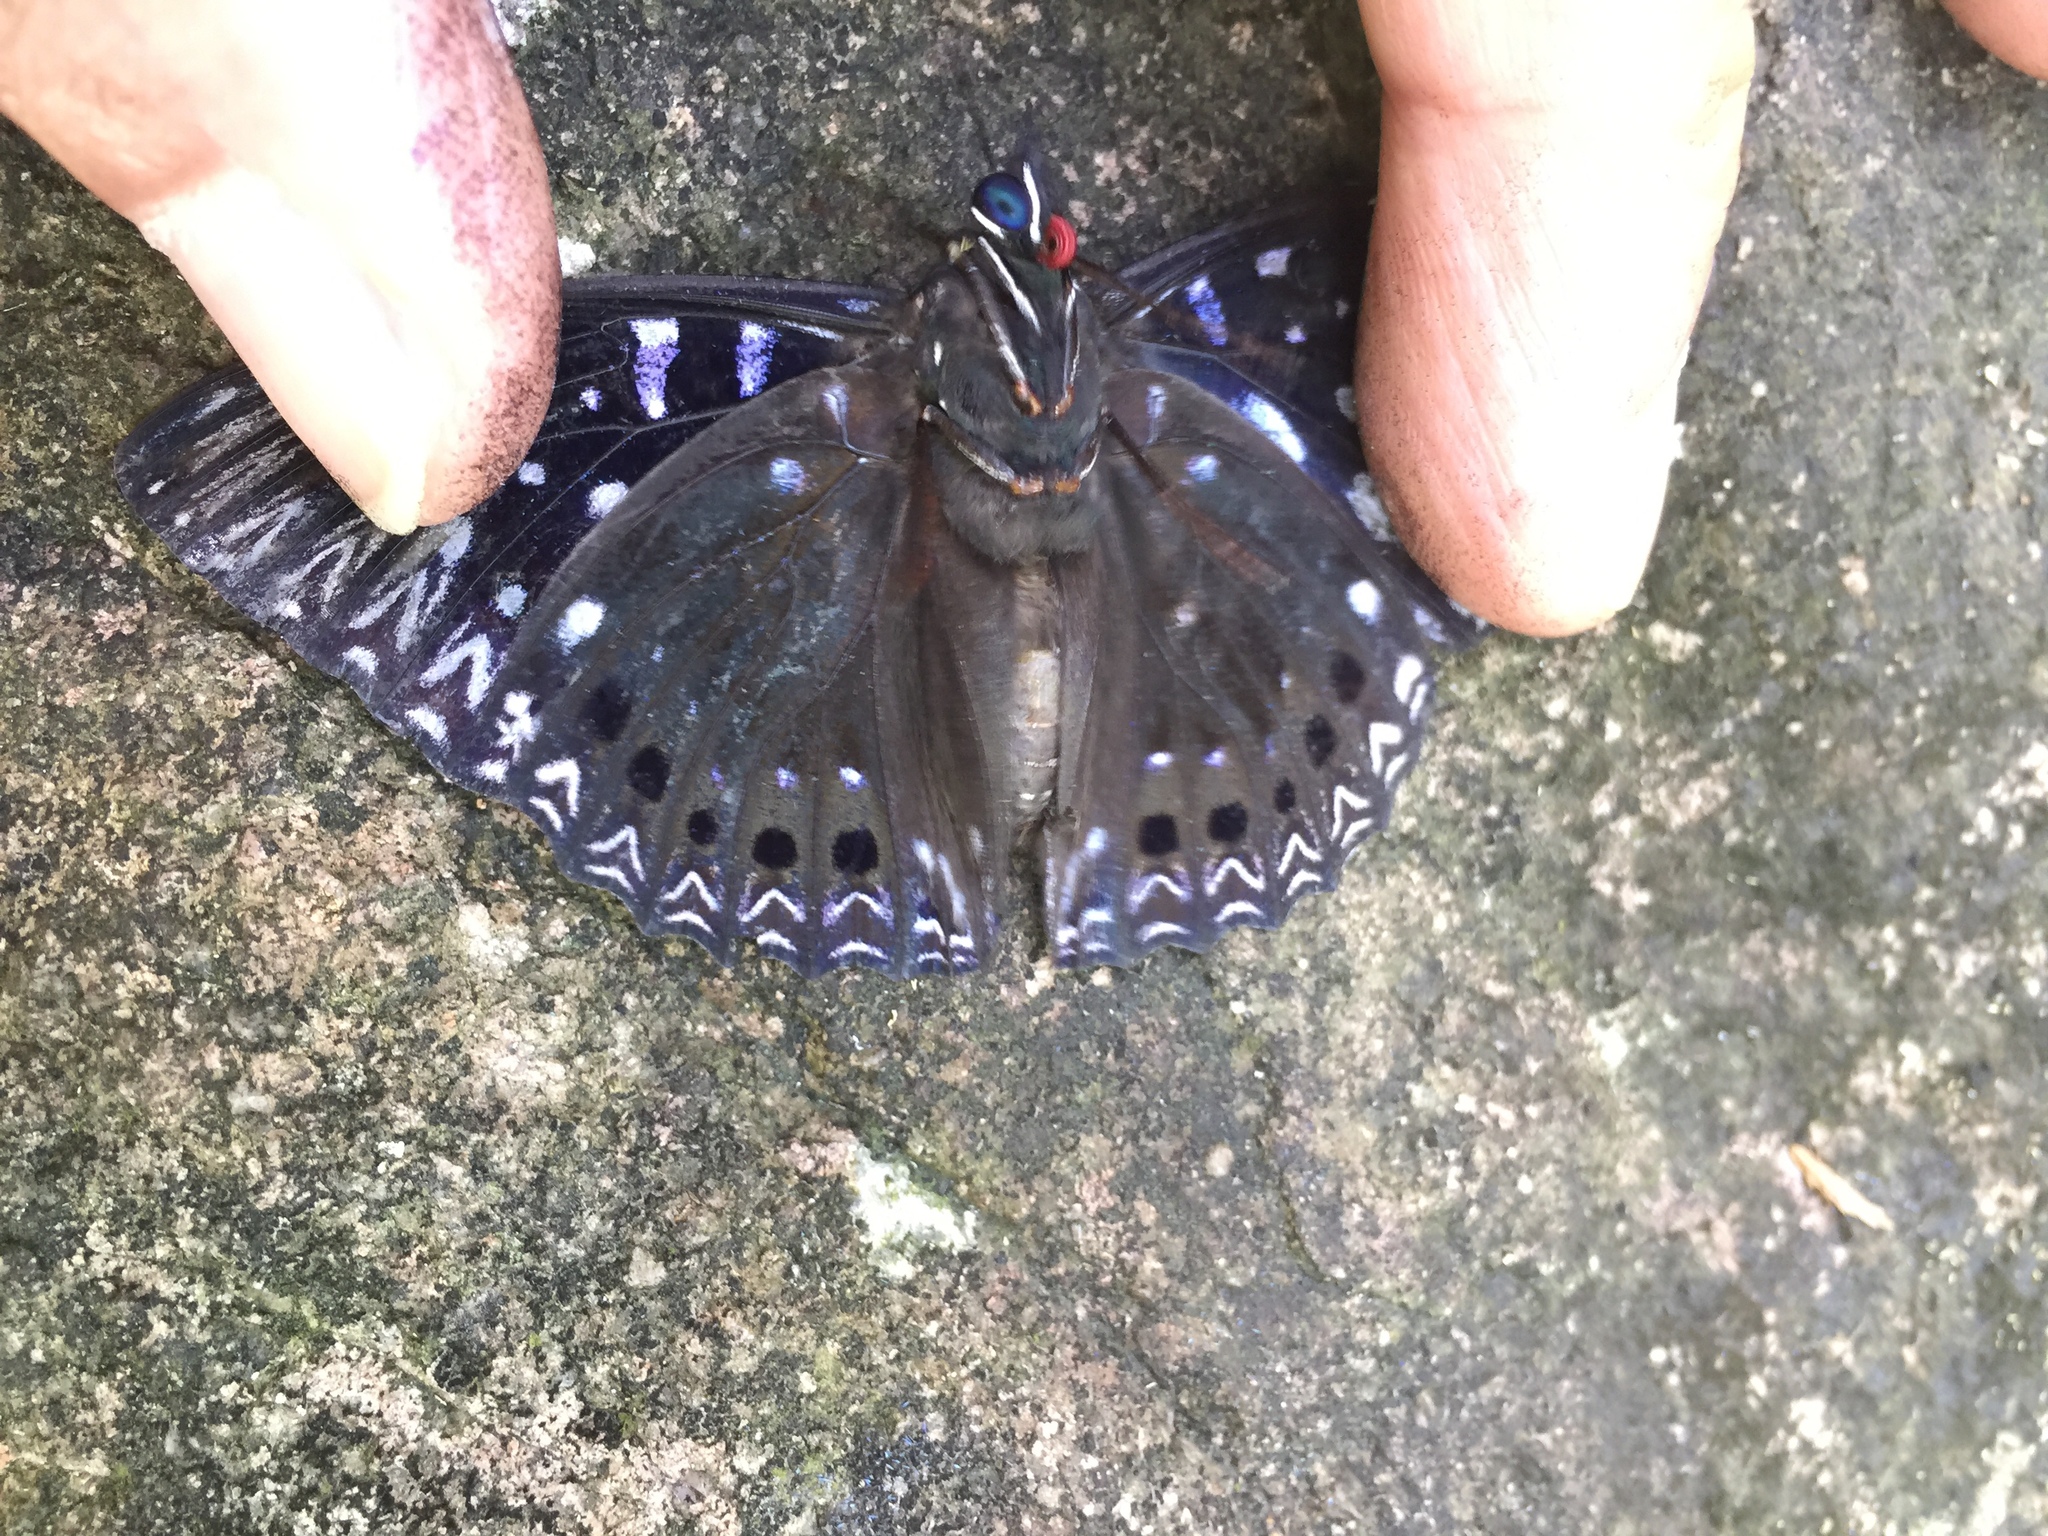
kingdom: Animalia
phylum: Arthropoda
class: Insecta
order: Lepidoptera
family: Nymphalidae
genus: Dichorragia
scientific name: Dichorragia nesimachus
